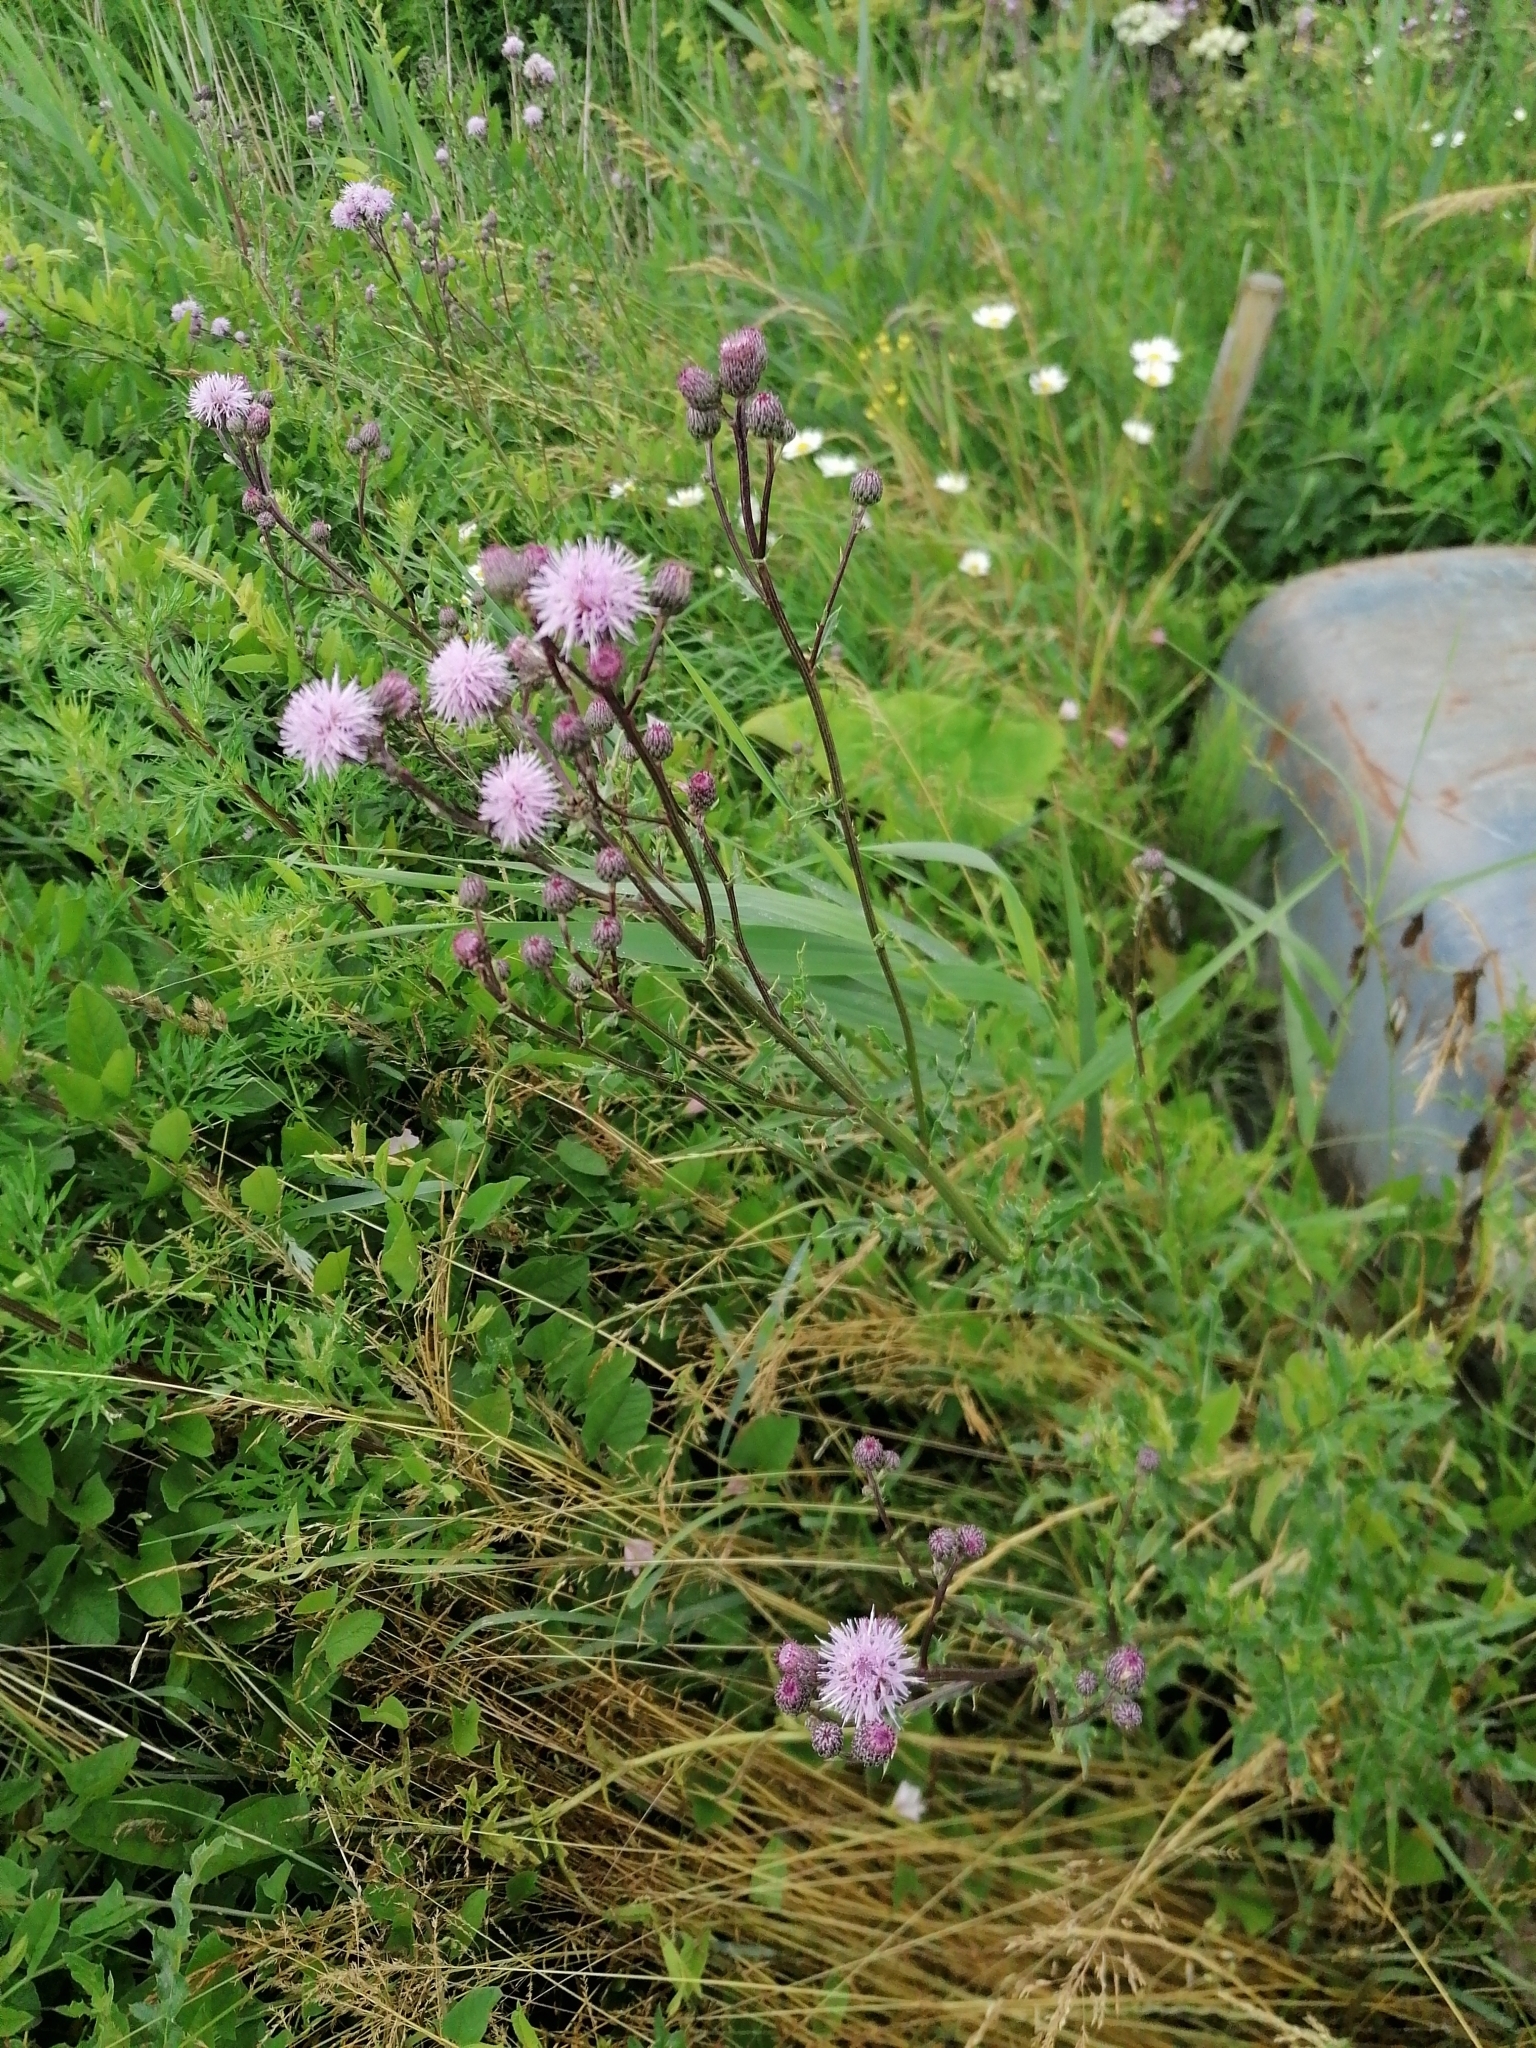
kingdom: Plantae
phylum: Tracheophyta
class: Magnoliopsida
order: Asterales
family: Asteraceae
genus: Cirsium
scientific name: Cirsium arvense
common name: Creeping thistle
